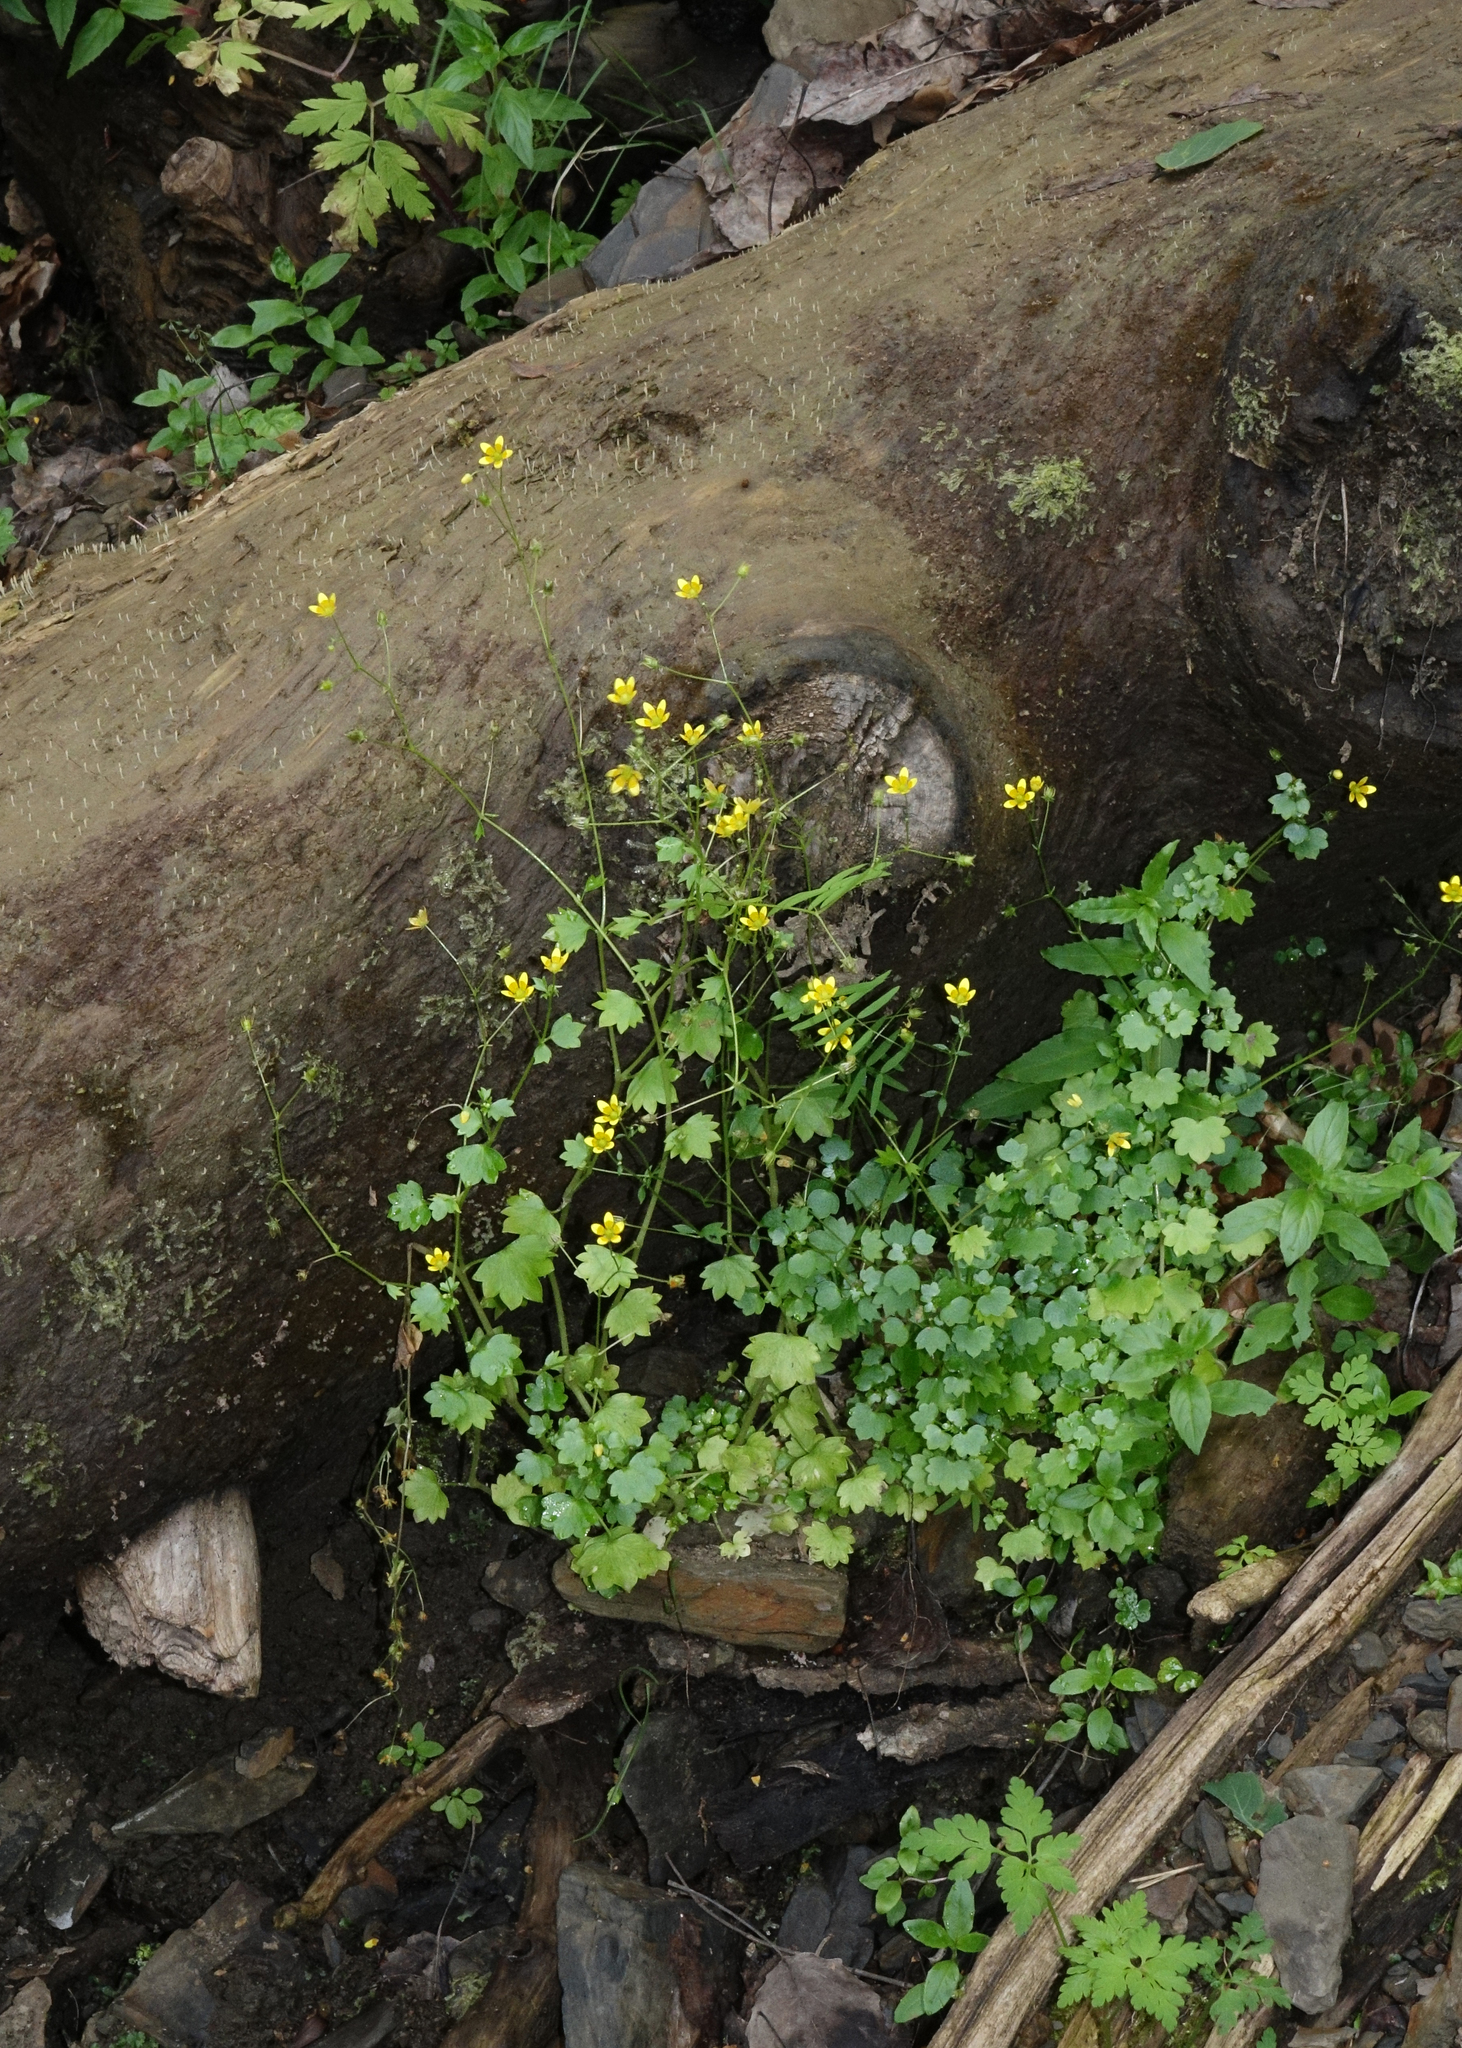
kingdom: Plantae
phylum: Tracheophyta
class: Magnoliopsida
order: Saxifragales
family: Saxifragaceae
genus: Saxifraga
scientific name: Saxifraga cymbalaria
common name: Celandine saxifrage
